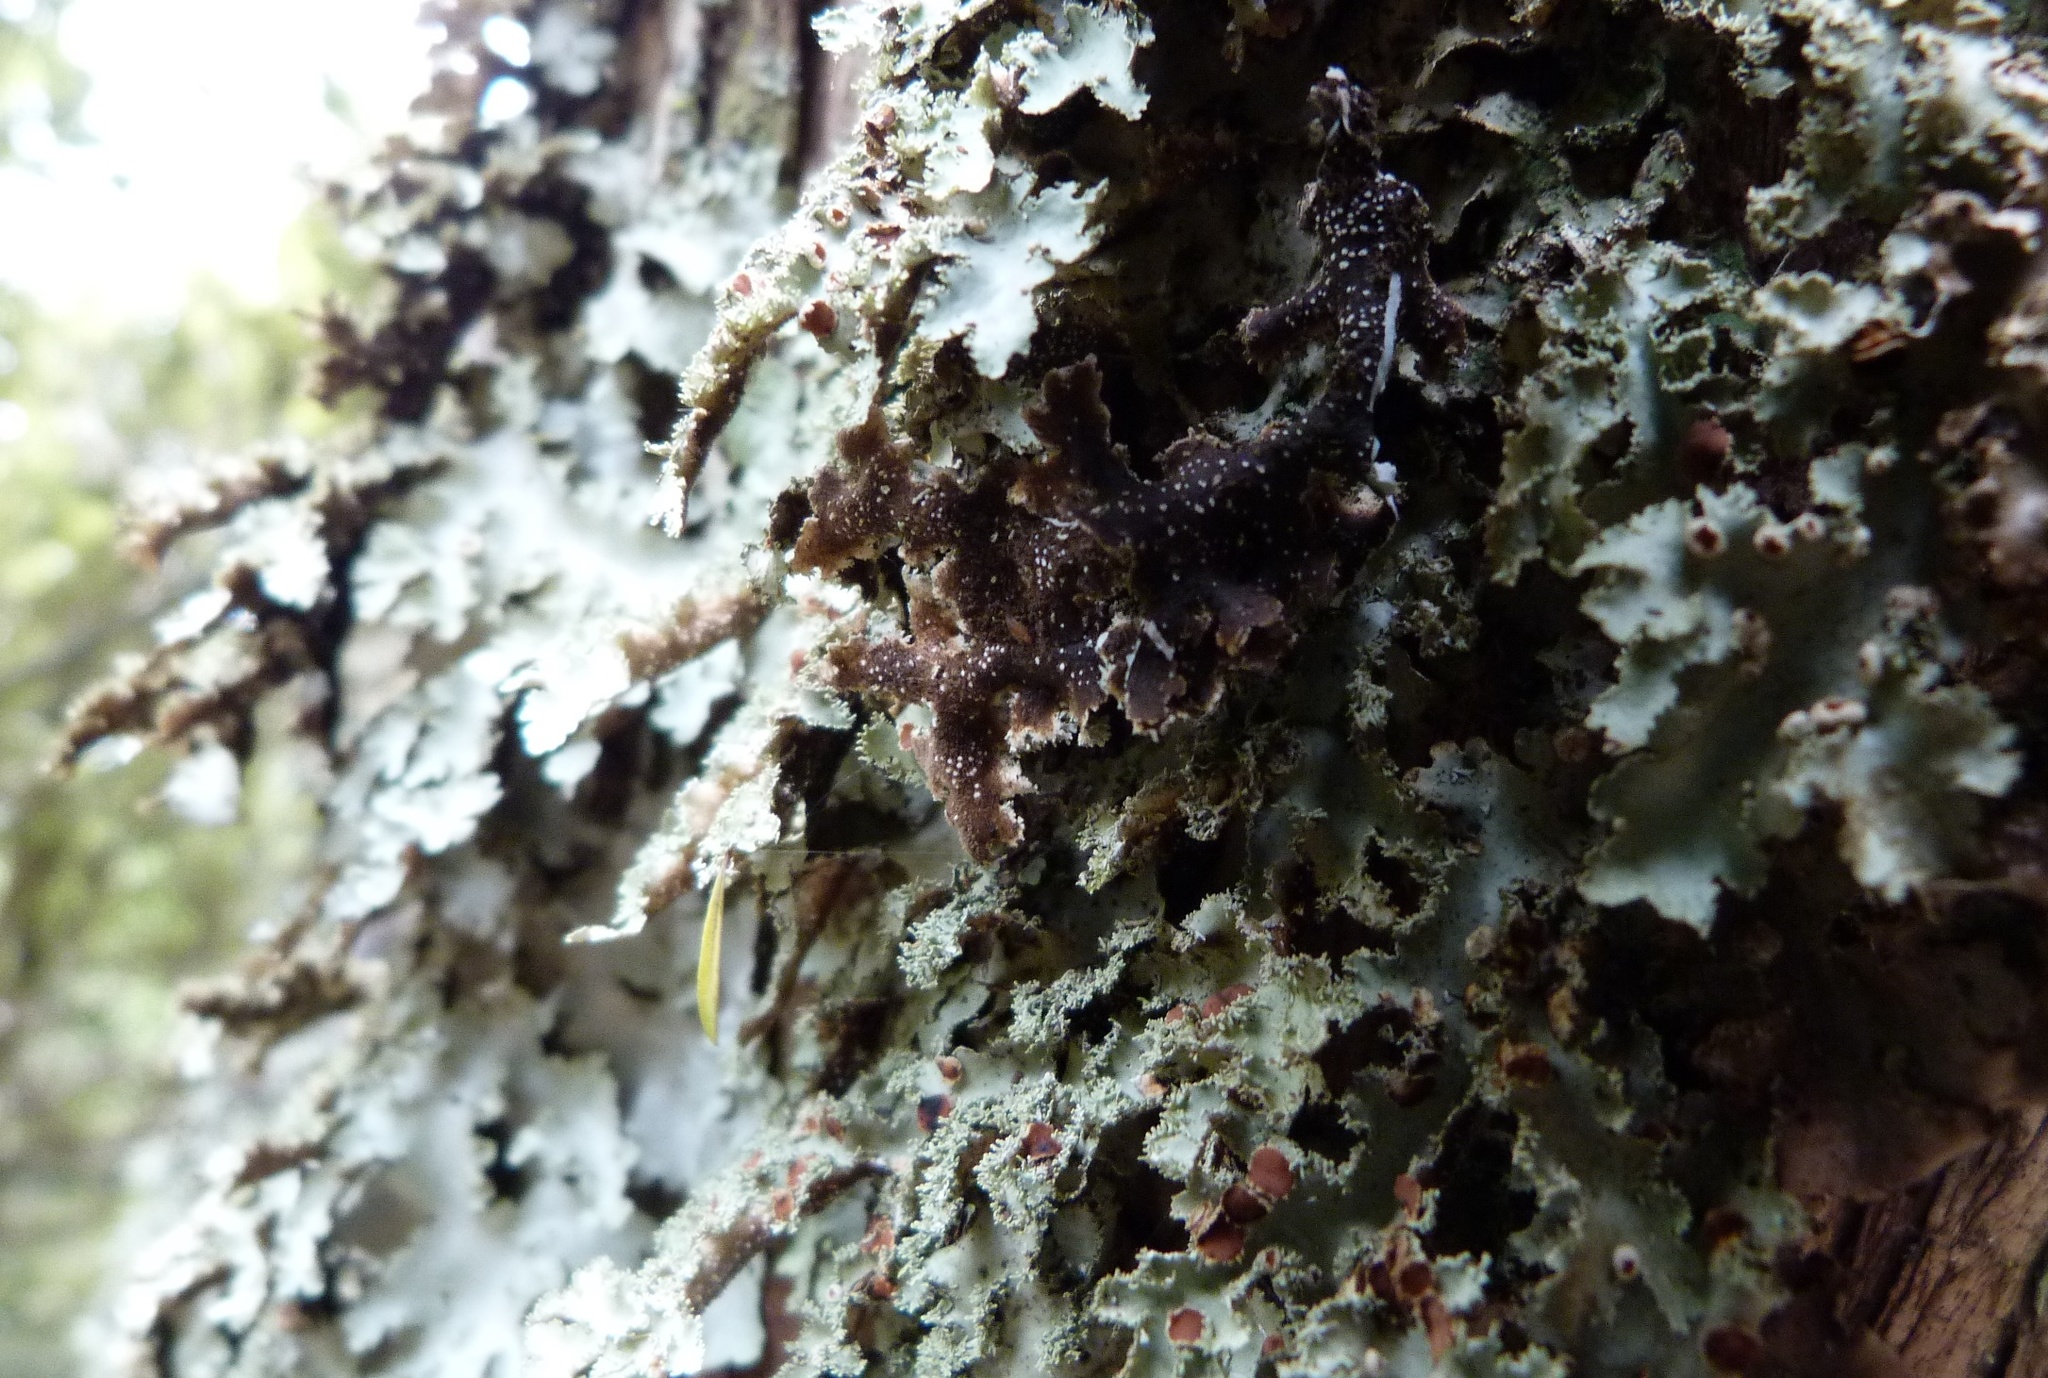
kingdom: Fungi
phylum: Ascomycota
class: Lecanoromycetes
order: Peltigerales
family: Lobariaceae
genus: Pseudocyphellaria
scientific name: Pseudocyphellaria glabra
